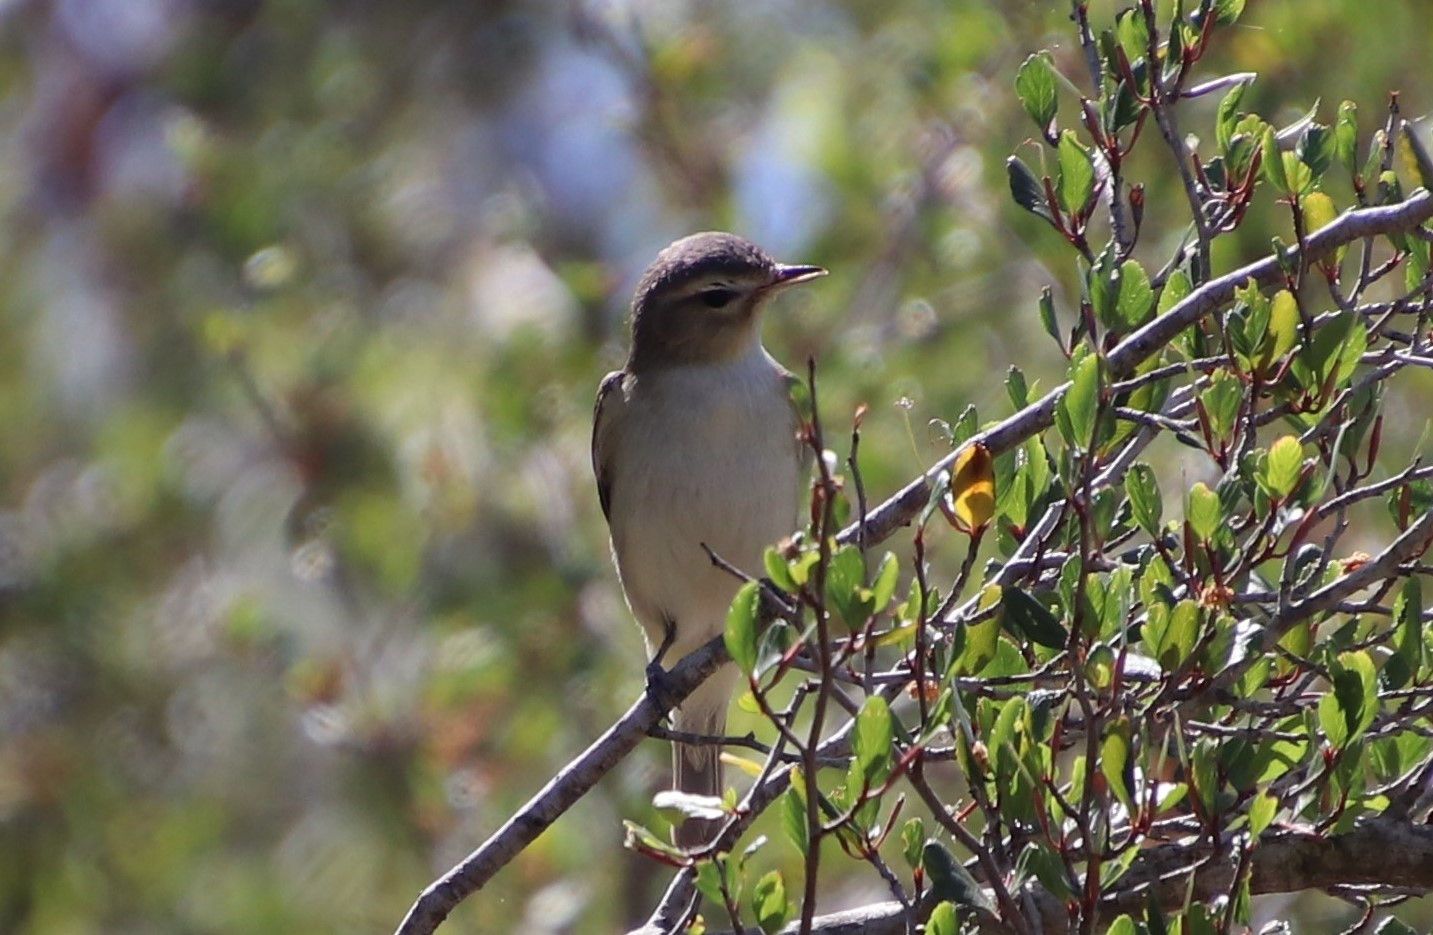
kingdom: Animalia
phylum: Chordata
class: Aves
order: Passeriformes
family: Vireonidae
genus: Vireo
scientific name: Vireo gilvus
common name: Warbling vireo
